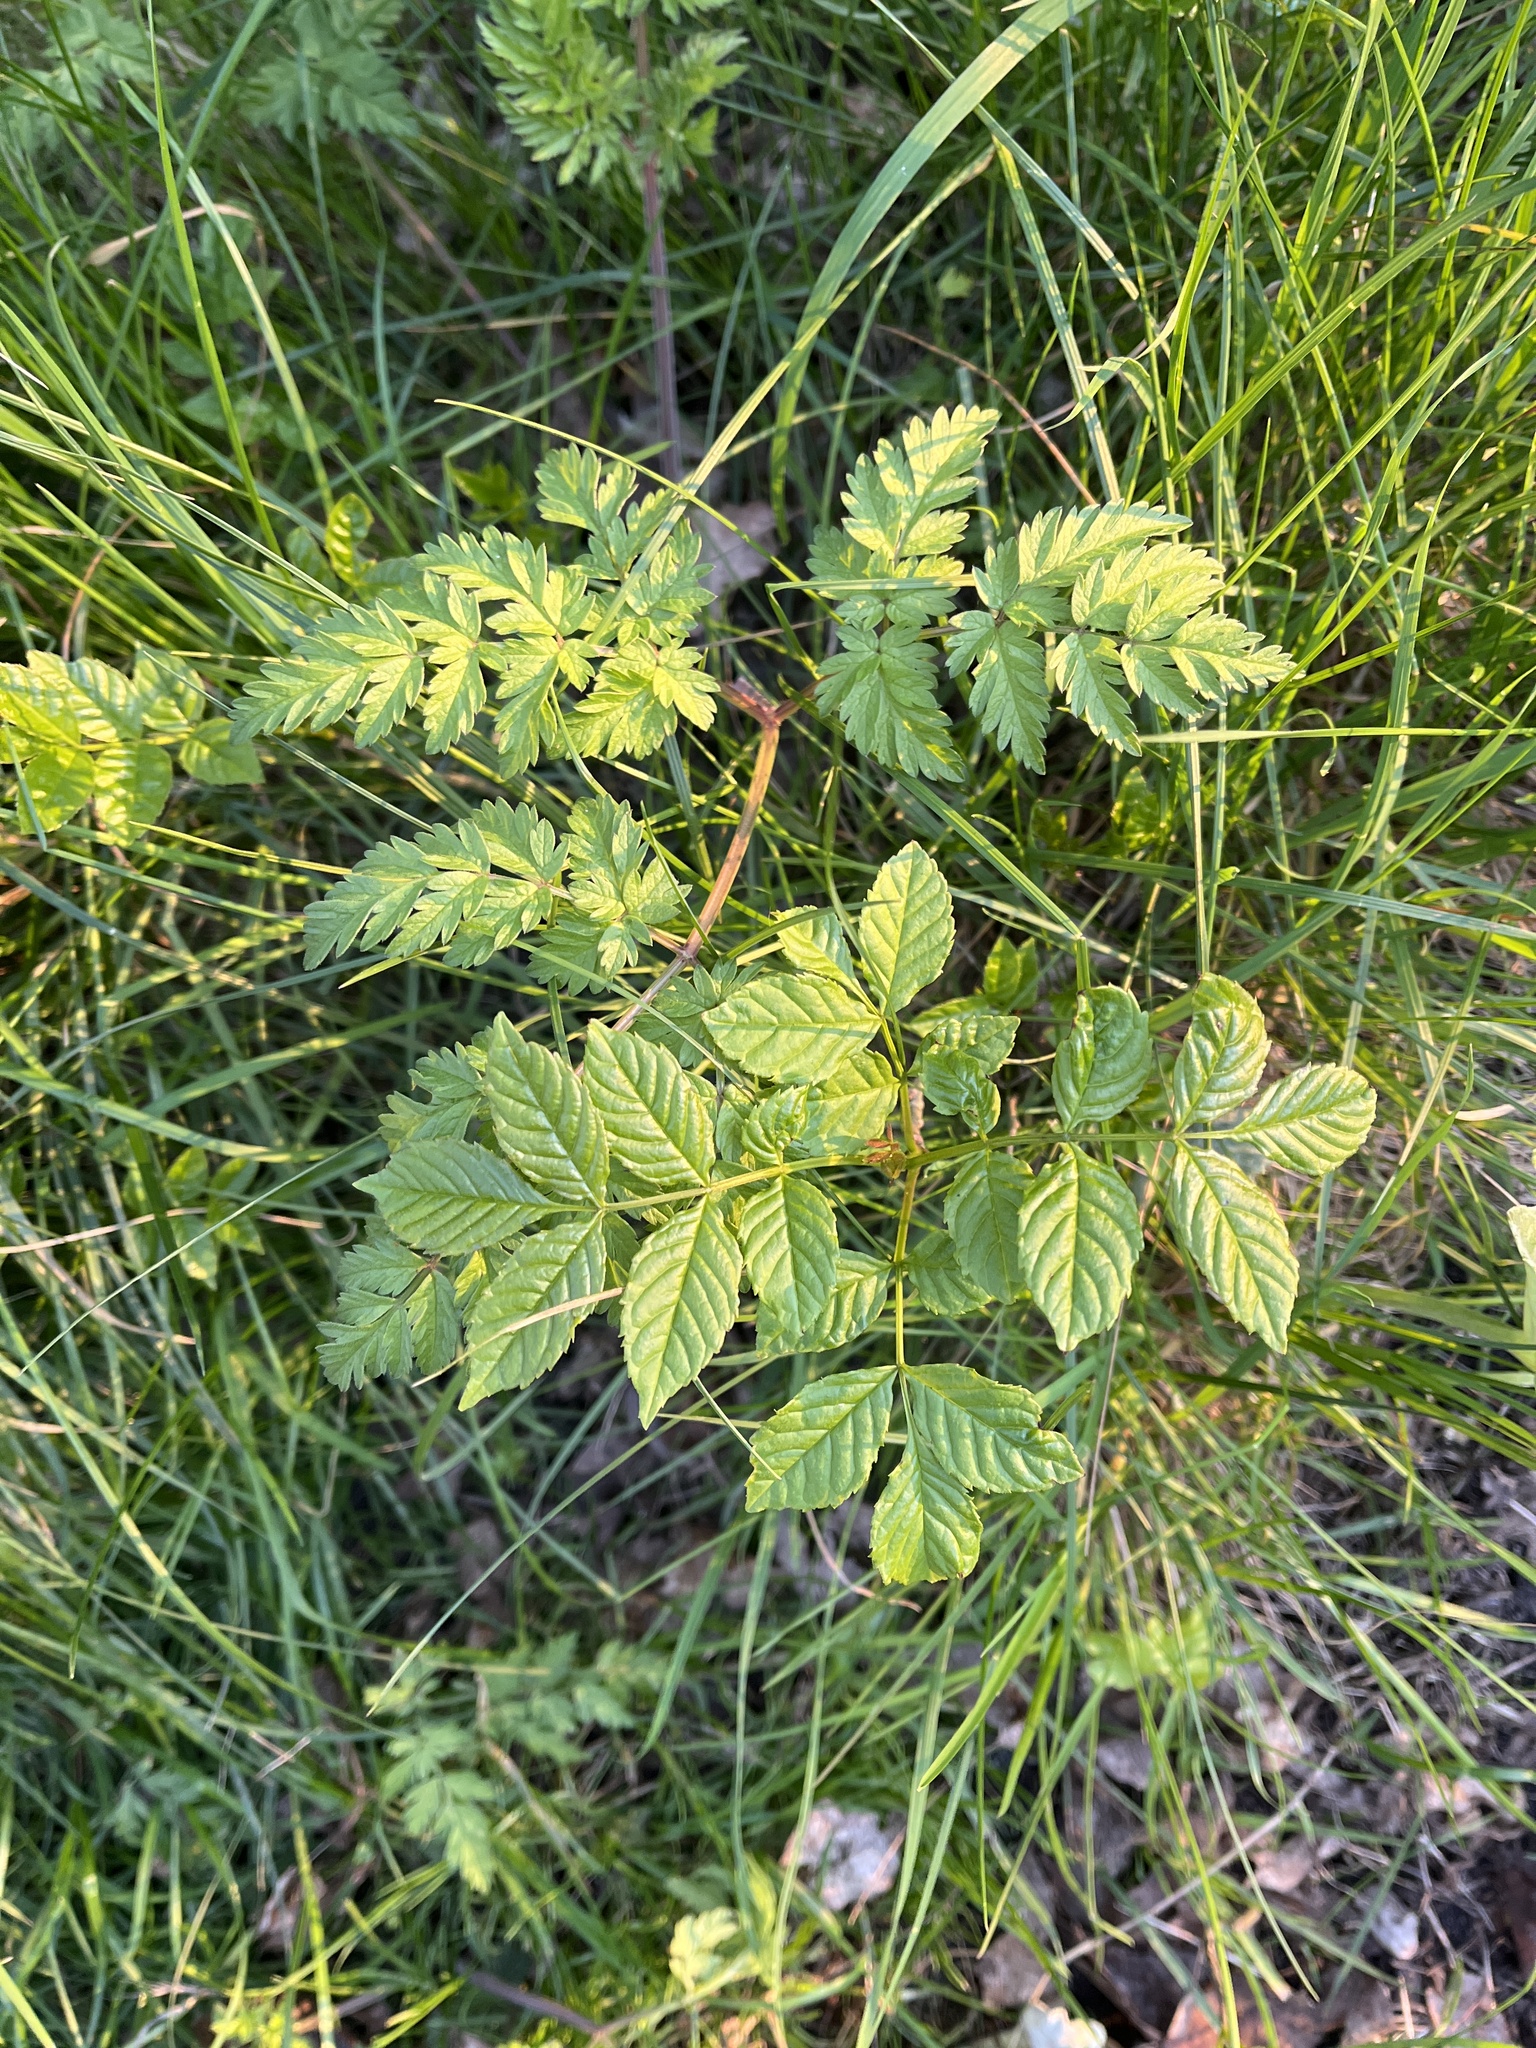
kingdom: Plantae
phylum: Tracheophyta
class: Magnoliopsida
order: Lamiales
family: Oleaceae
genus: Fraxinus
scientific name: Fraxinus excelsior
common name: European ash
